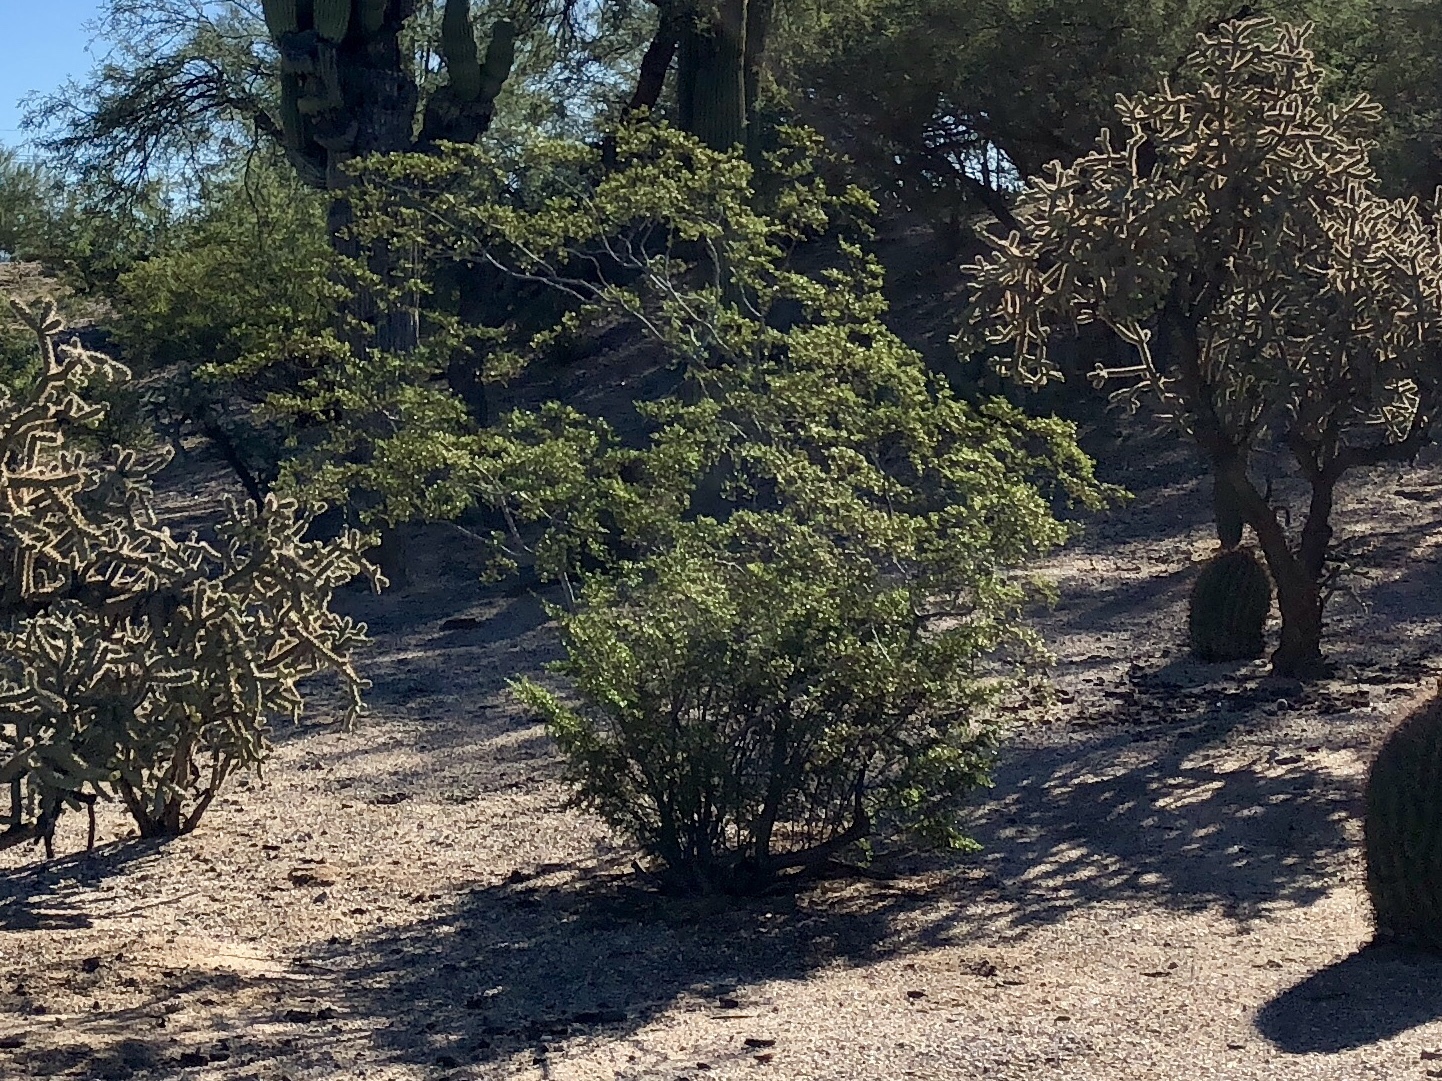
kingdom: Plantae
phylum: Tracheophyta
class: Magnoliopsida
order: Zygophyllales
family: Zygophyllaceae
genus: Larrea
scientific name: Larrea tridentata
